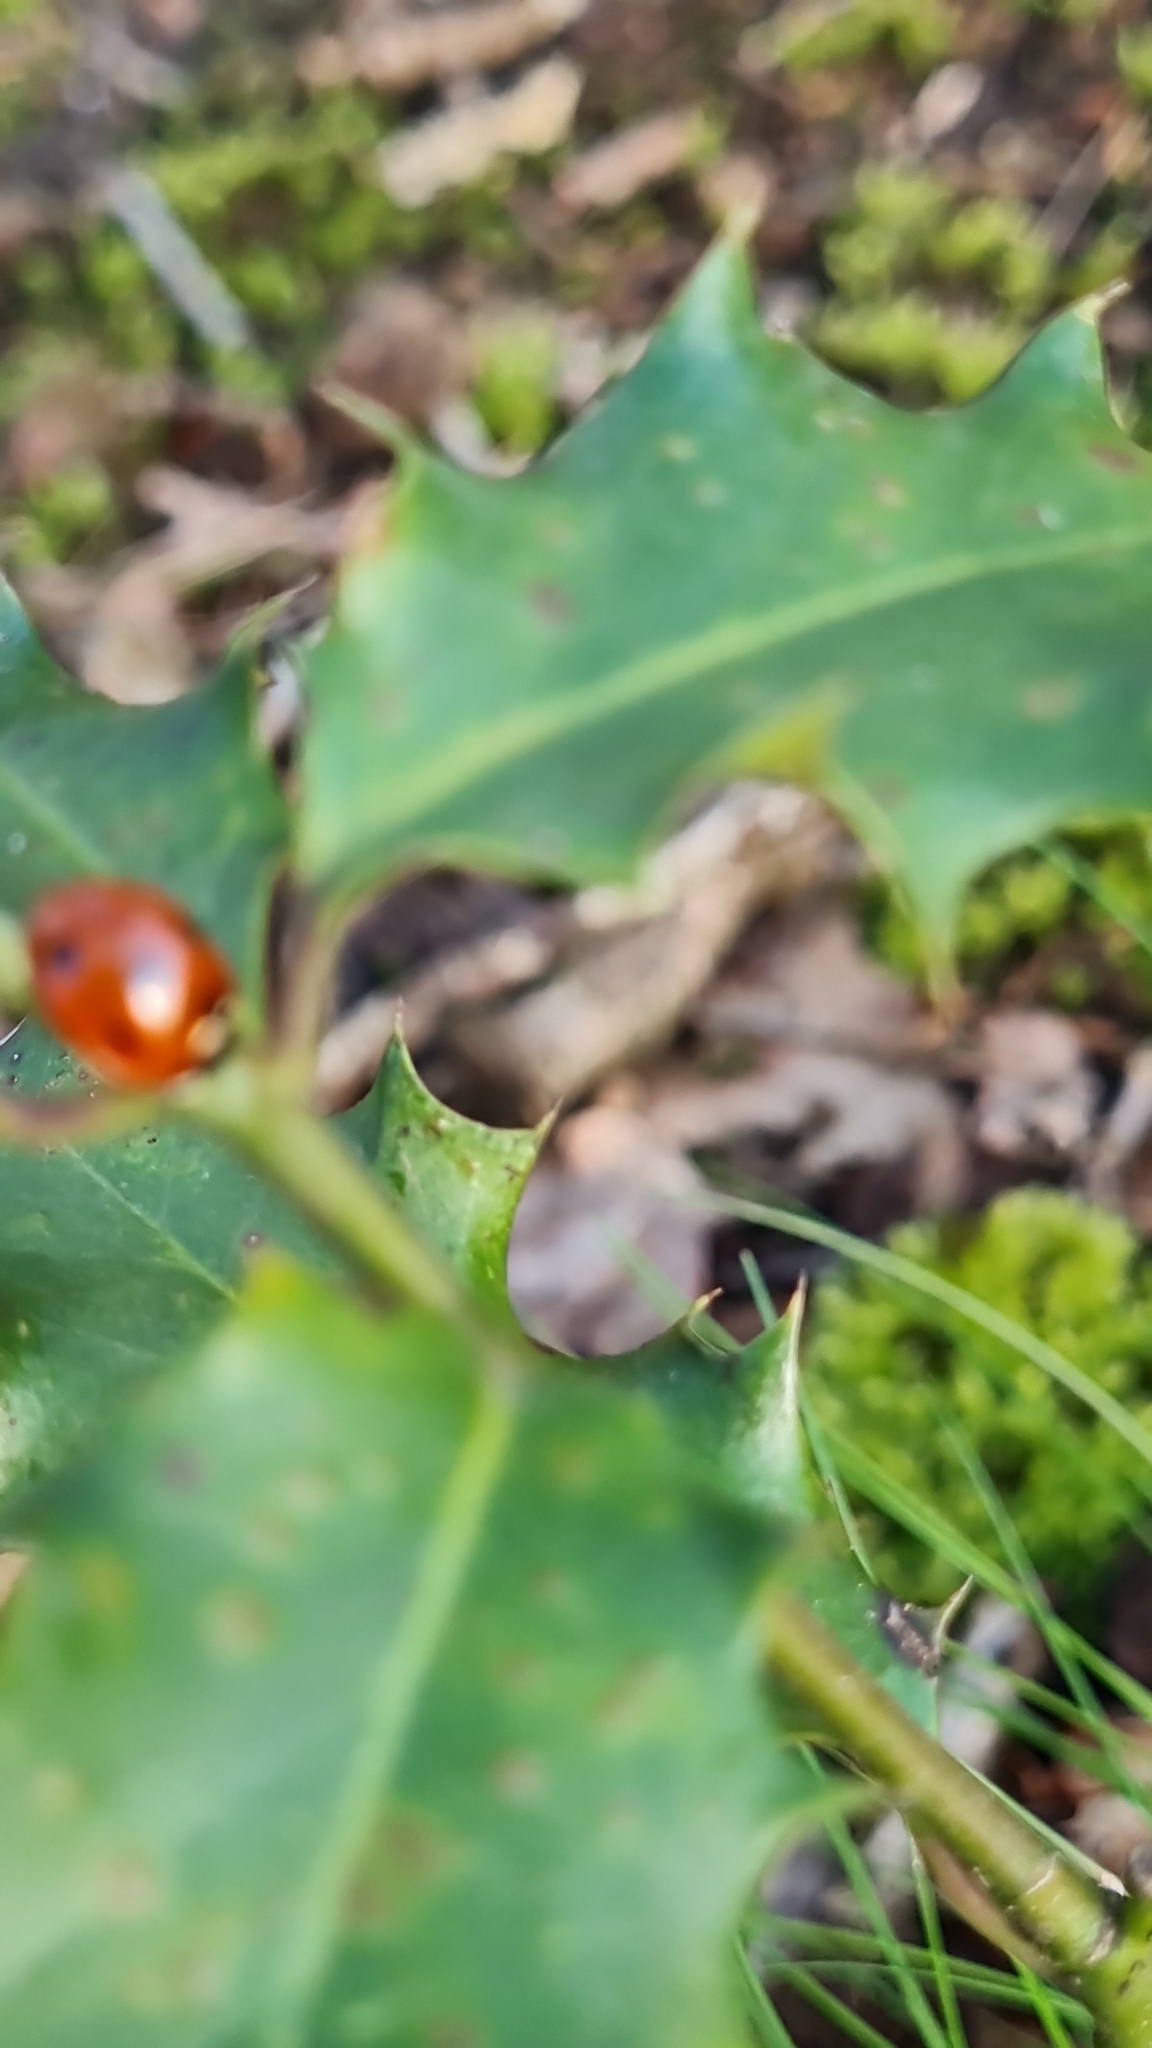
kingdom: Animalia
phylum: Arthropoda
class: Insecta
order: Coleoptera
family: Coccinellidae
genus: Coccinella
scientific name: Coccinella septempunctata
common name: Sevenspotted lady beetle
